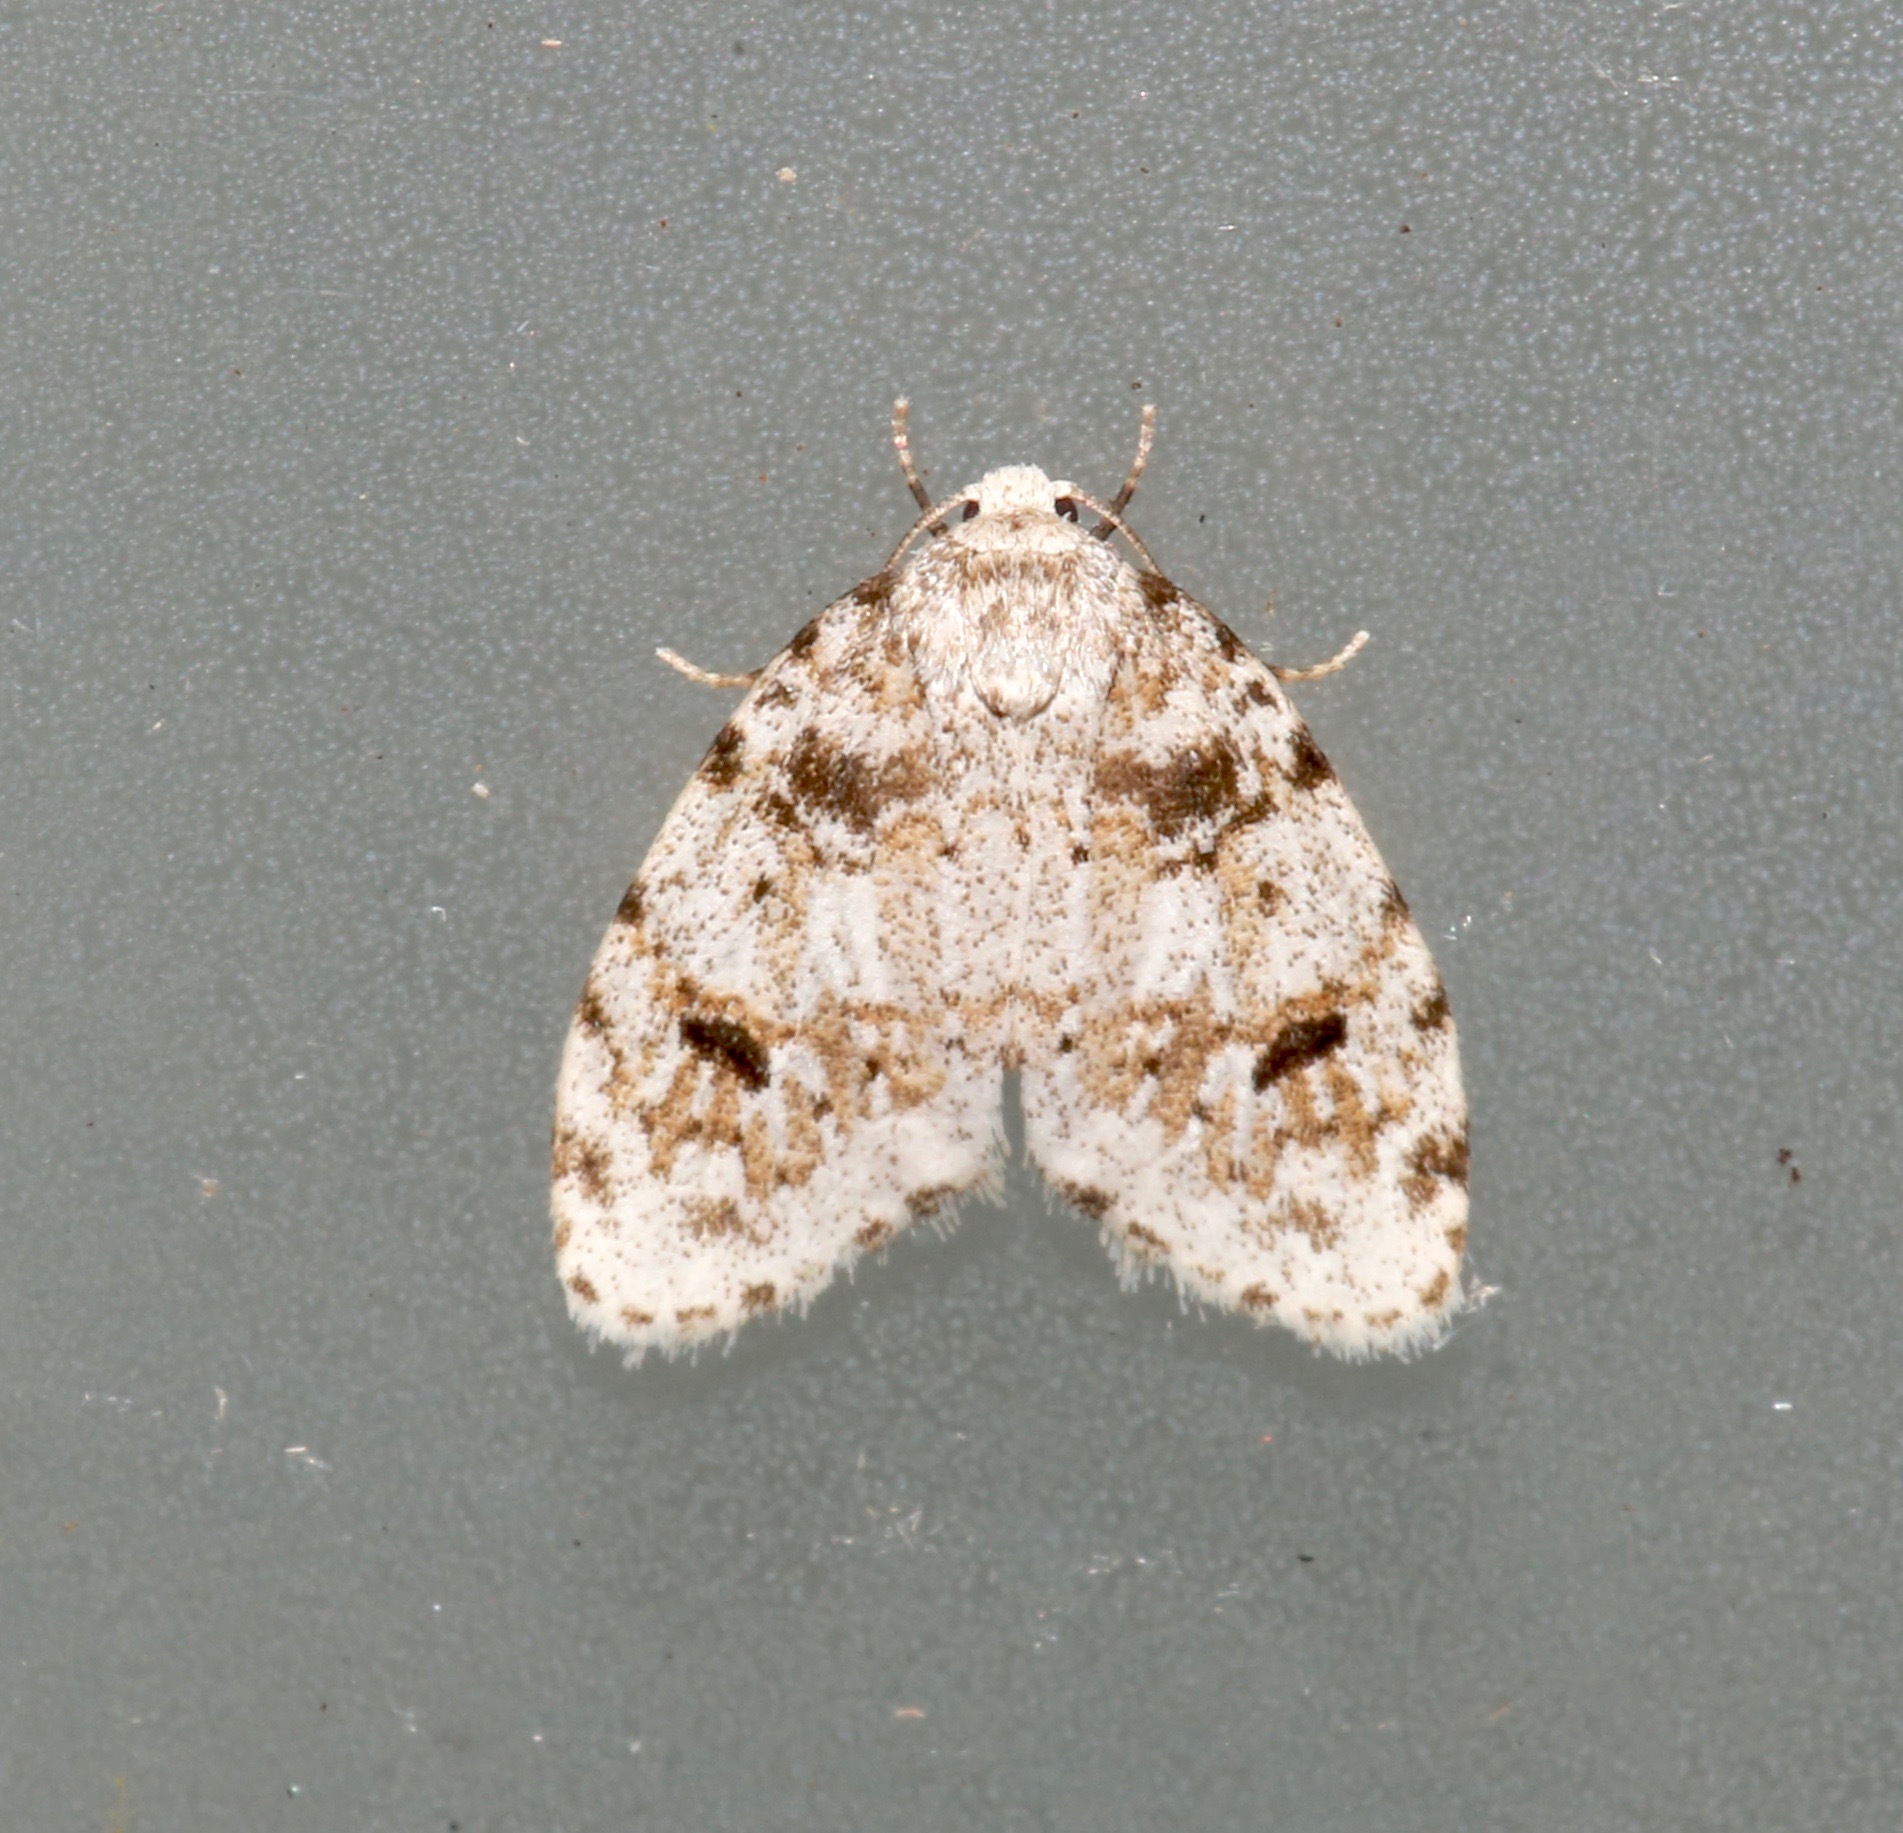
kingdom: Animalia
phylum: Arthropoda
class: Insecta
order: Lepidoptera
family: Erebidae
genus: Clemensia
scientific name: Clemensia ochreata
